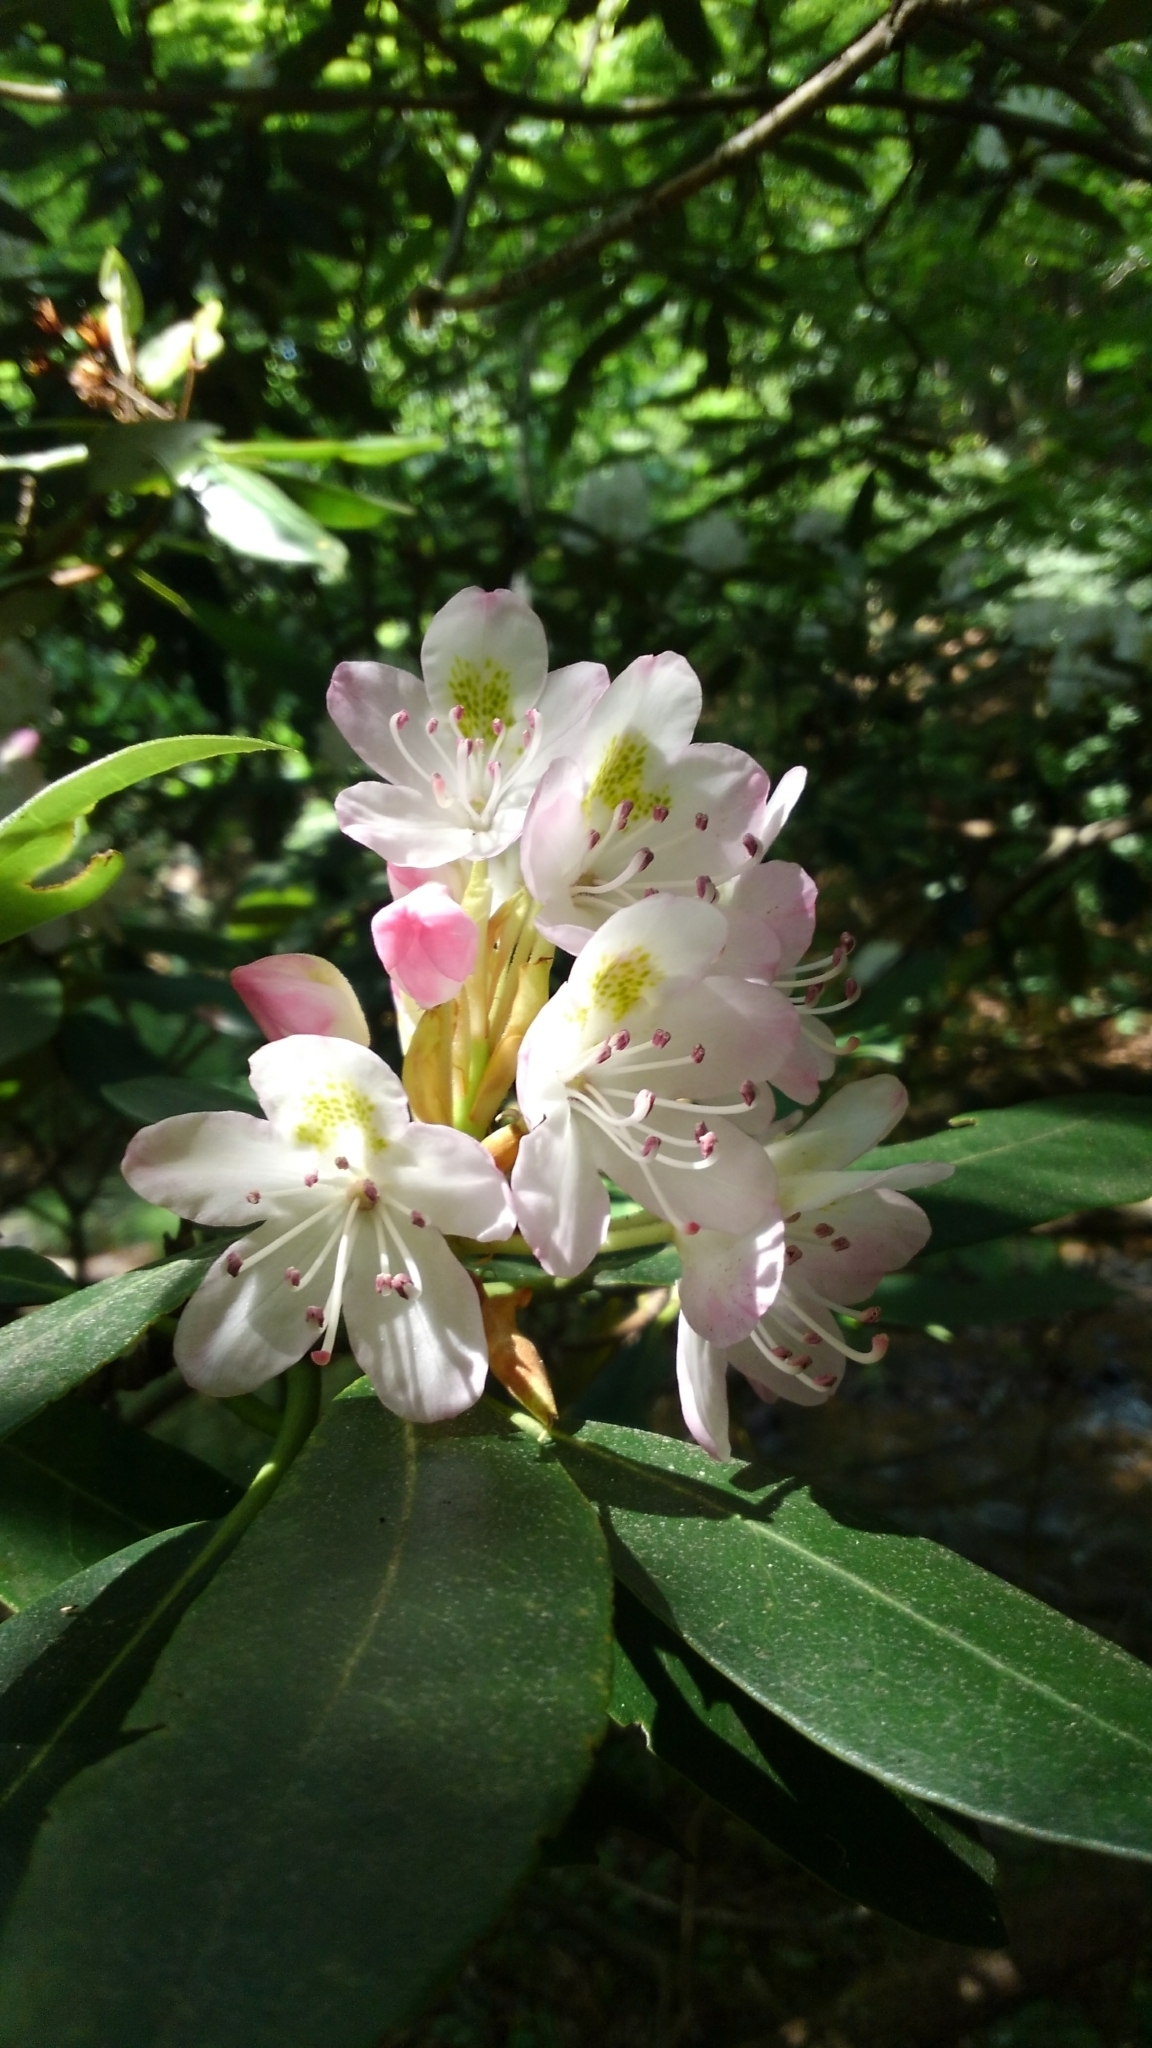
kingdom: Plantae
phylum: Tracheophyta
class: Magnoliopsida
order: Ericales
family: Ericaceae
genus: Rhododendron
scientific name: Rhododendron maximum
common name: Great rhododendron
